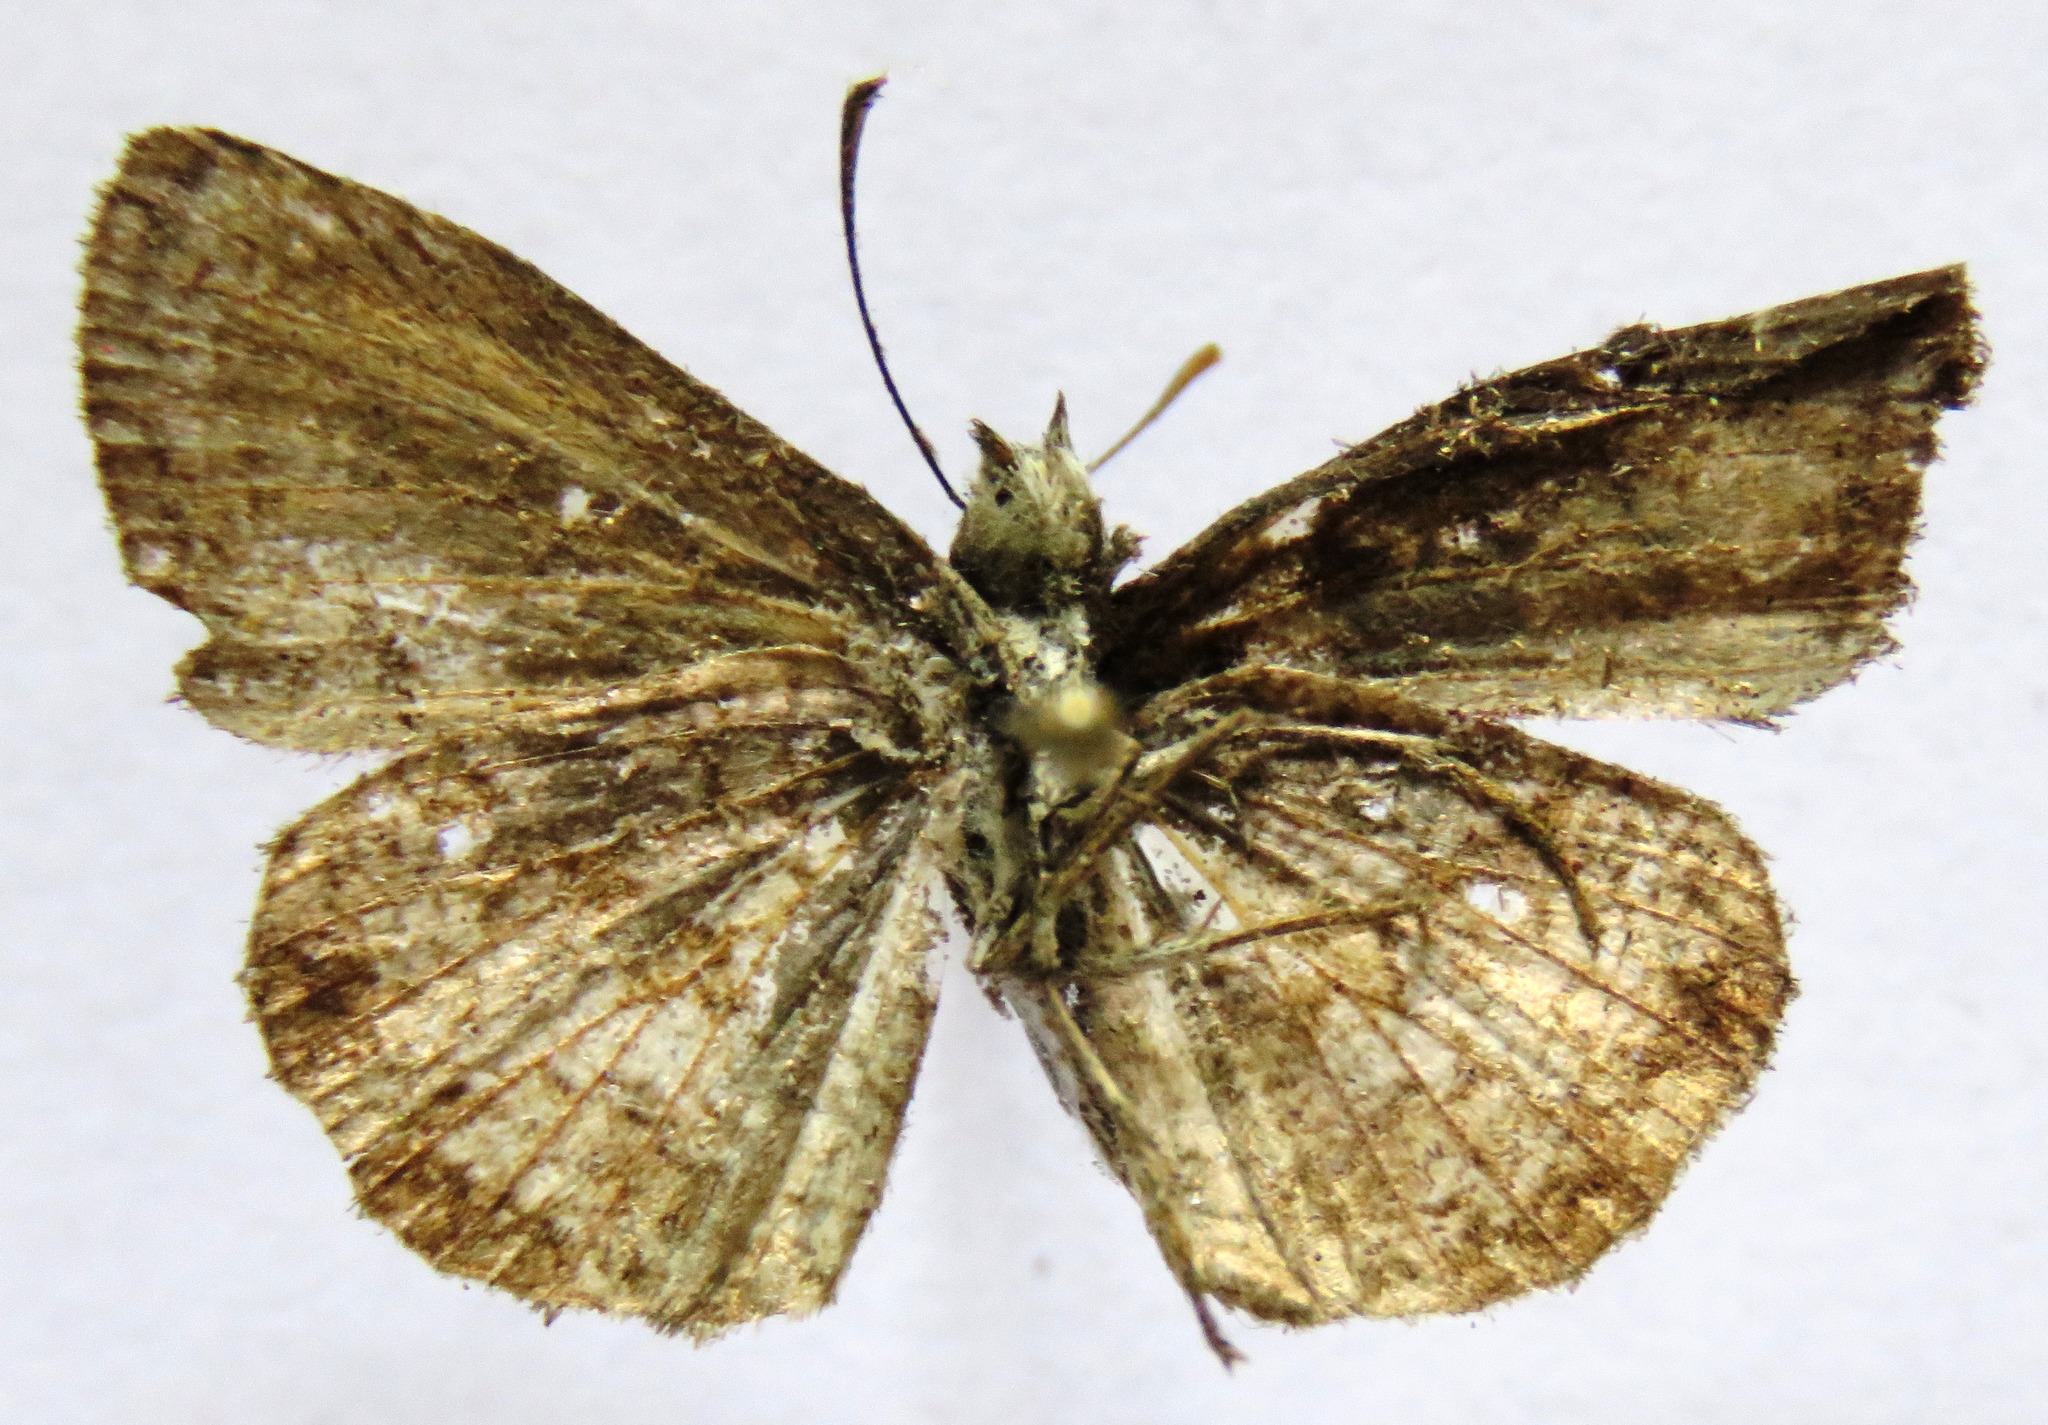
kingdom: Animalia
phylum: Arthropoda
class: Insecta
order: Lepidoptera
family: Hesperiidae
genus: Zopyrion
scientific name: Zopyrion sandace
